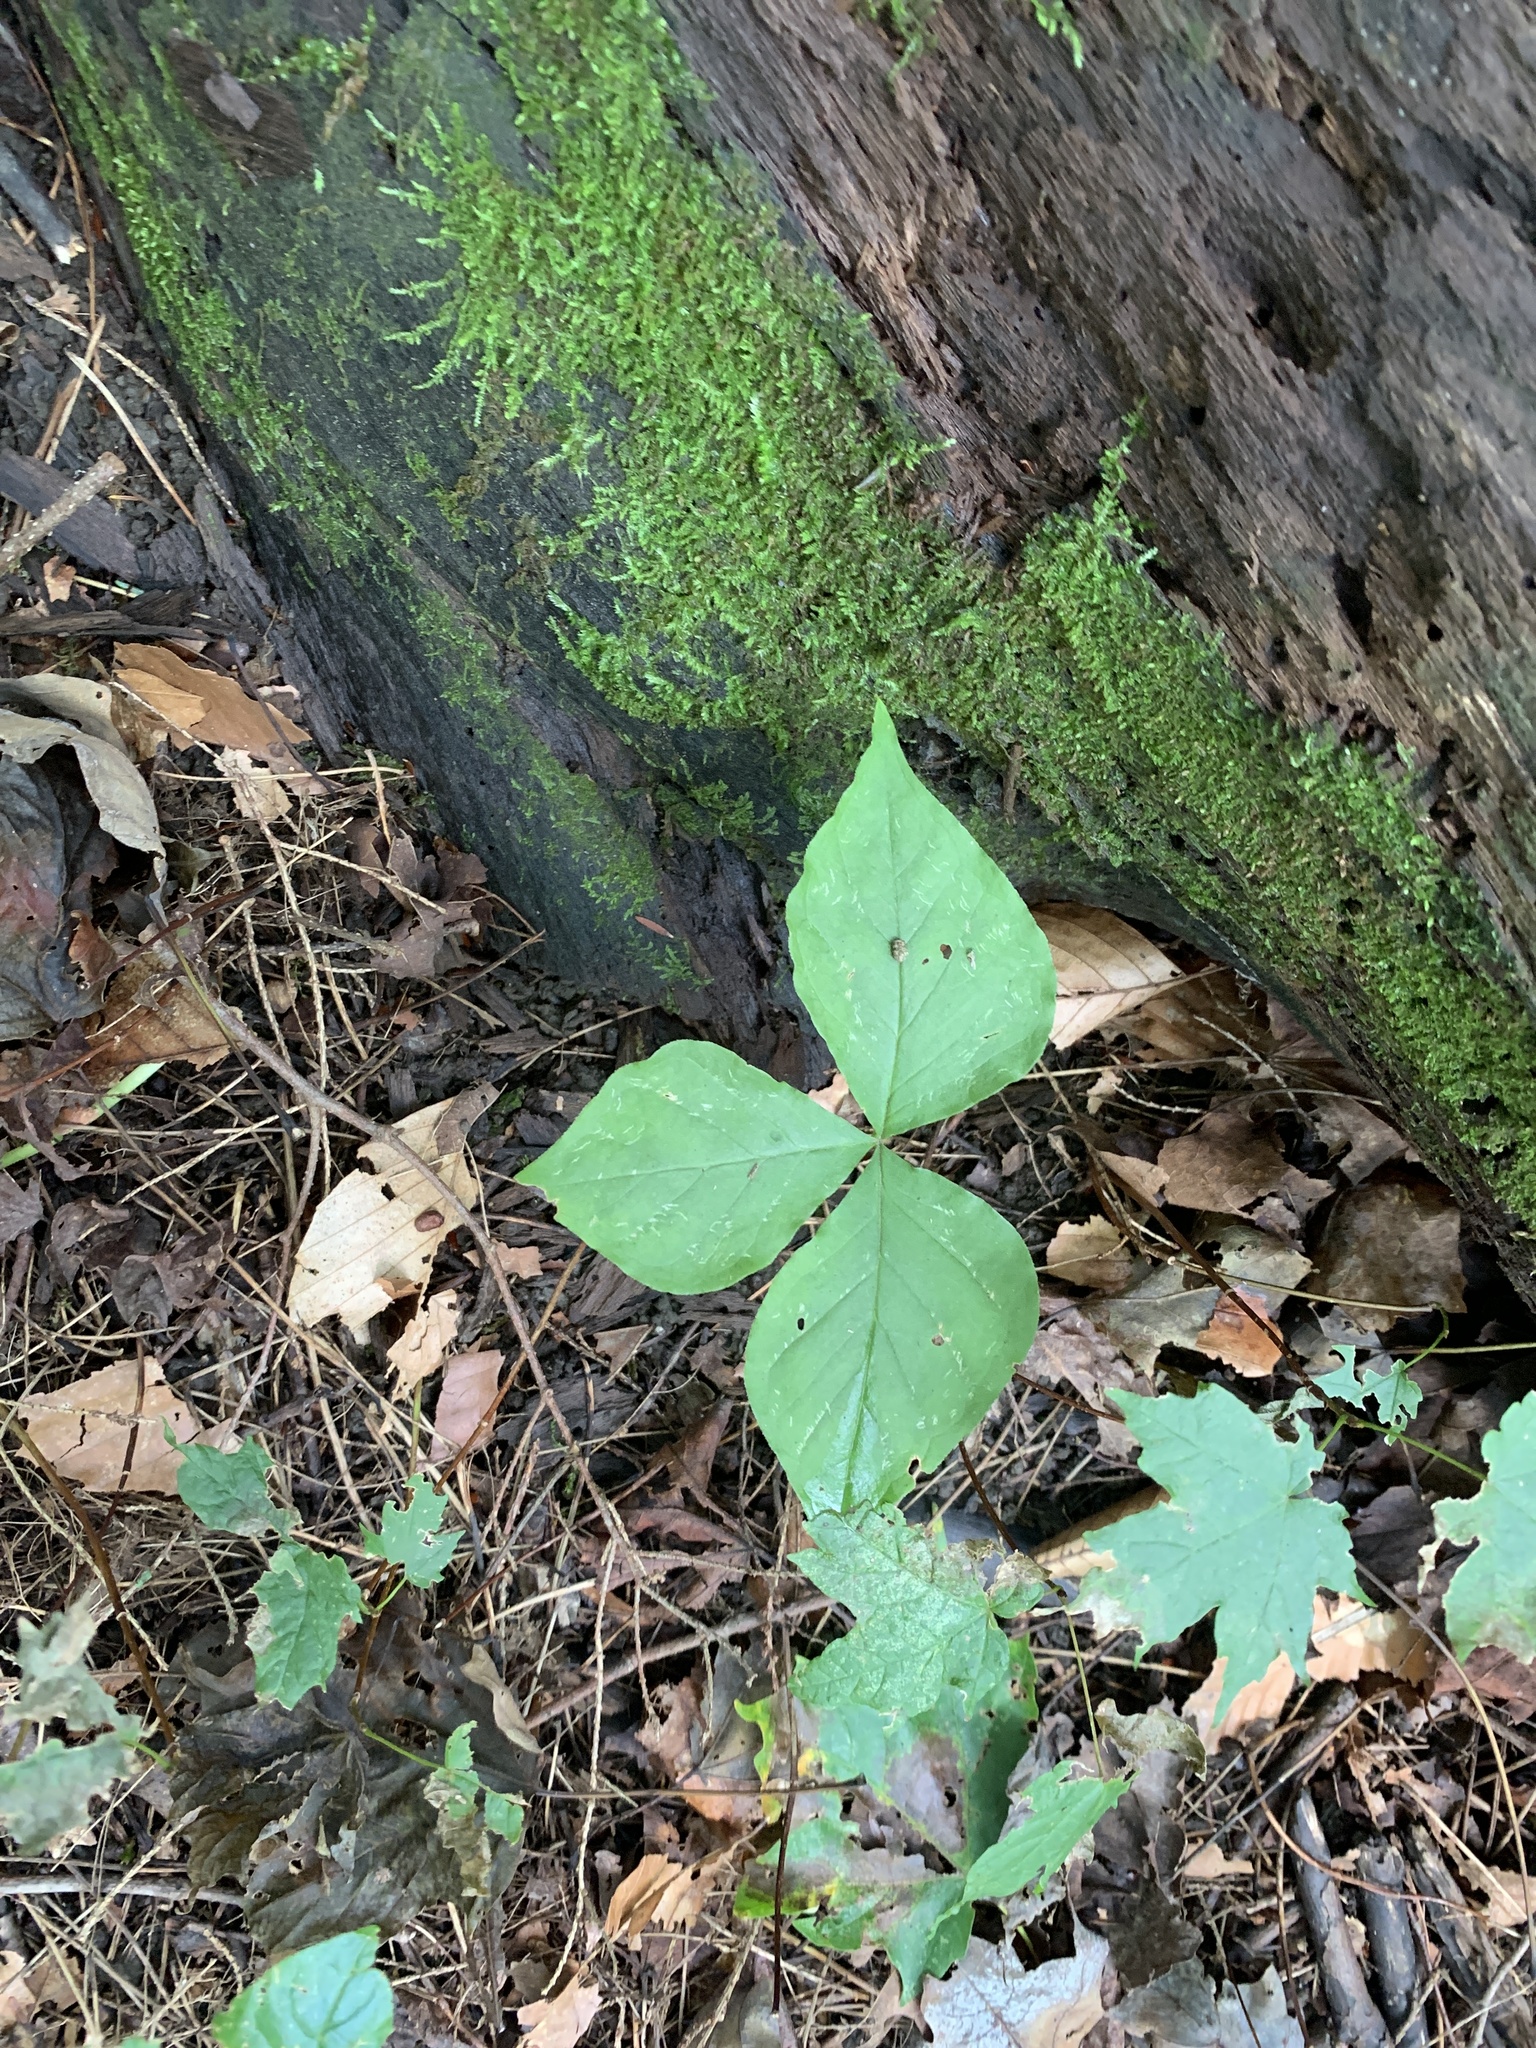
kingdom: Plantae
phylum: Tracheophyta
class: Liliopsida
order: Alismatales
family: Araceae
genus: Arisaema
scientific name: Arisaema triphyllum
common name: Jack-in-the-pulpit
